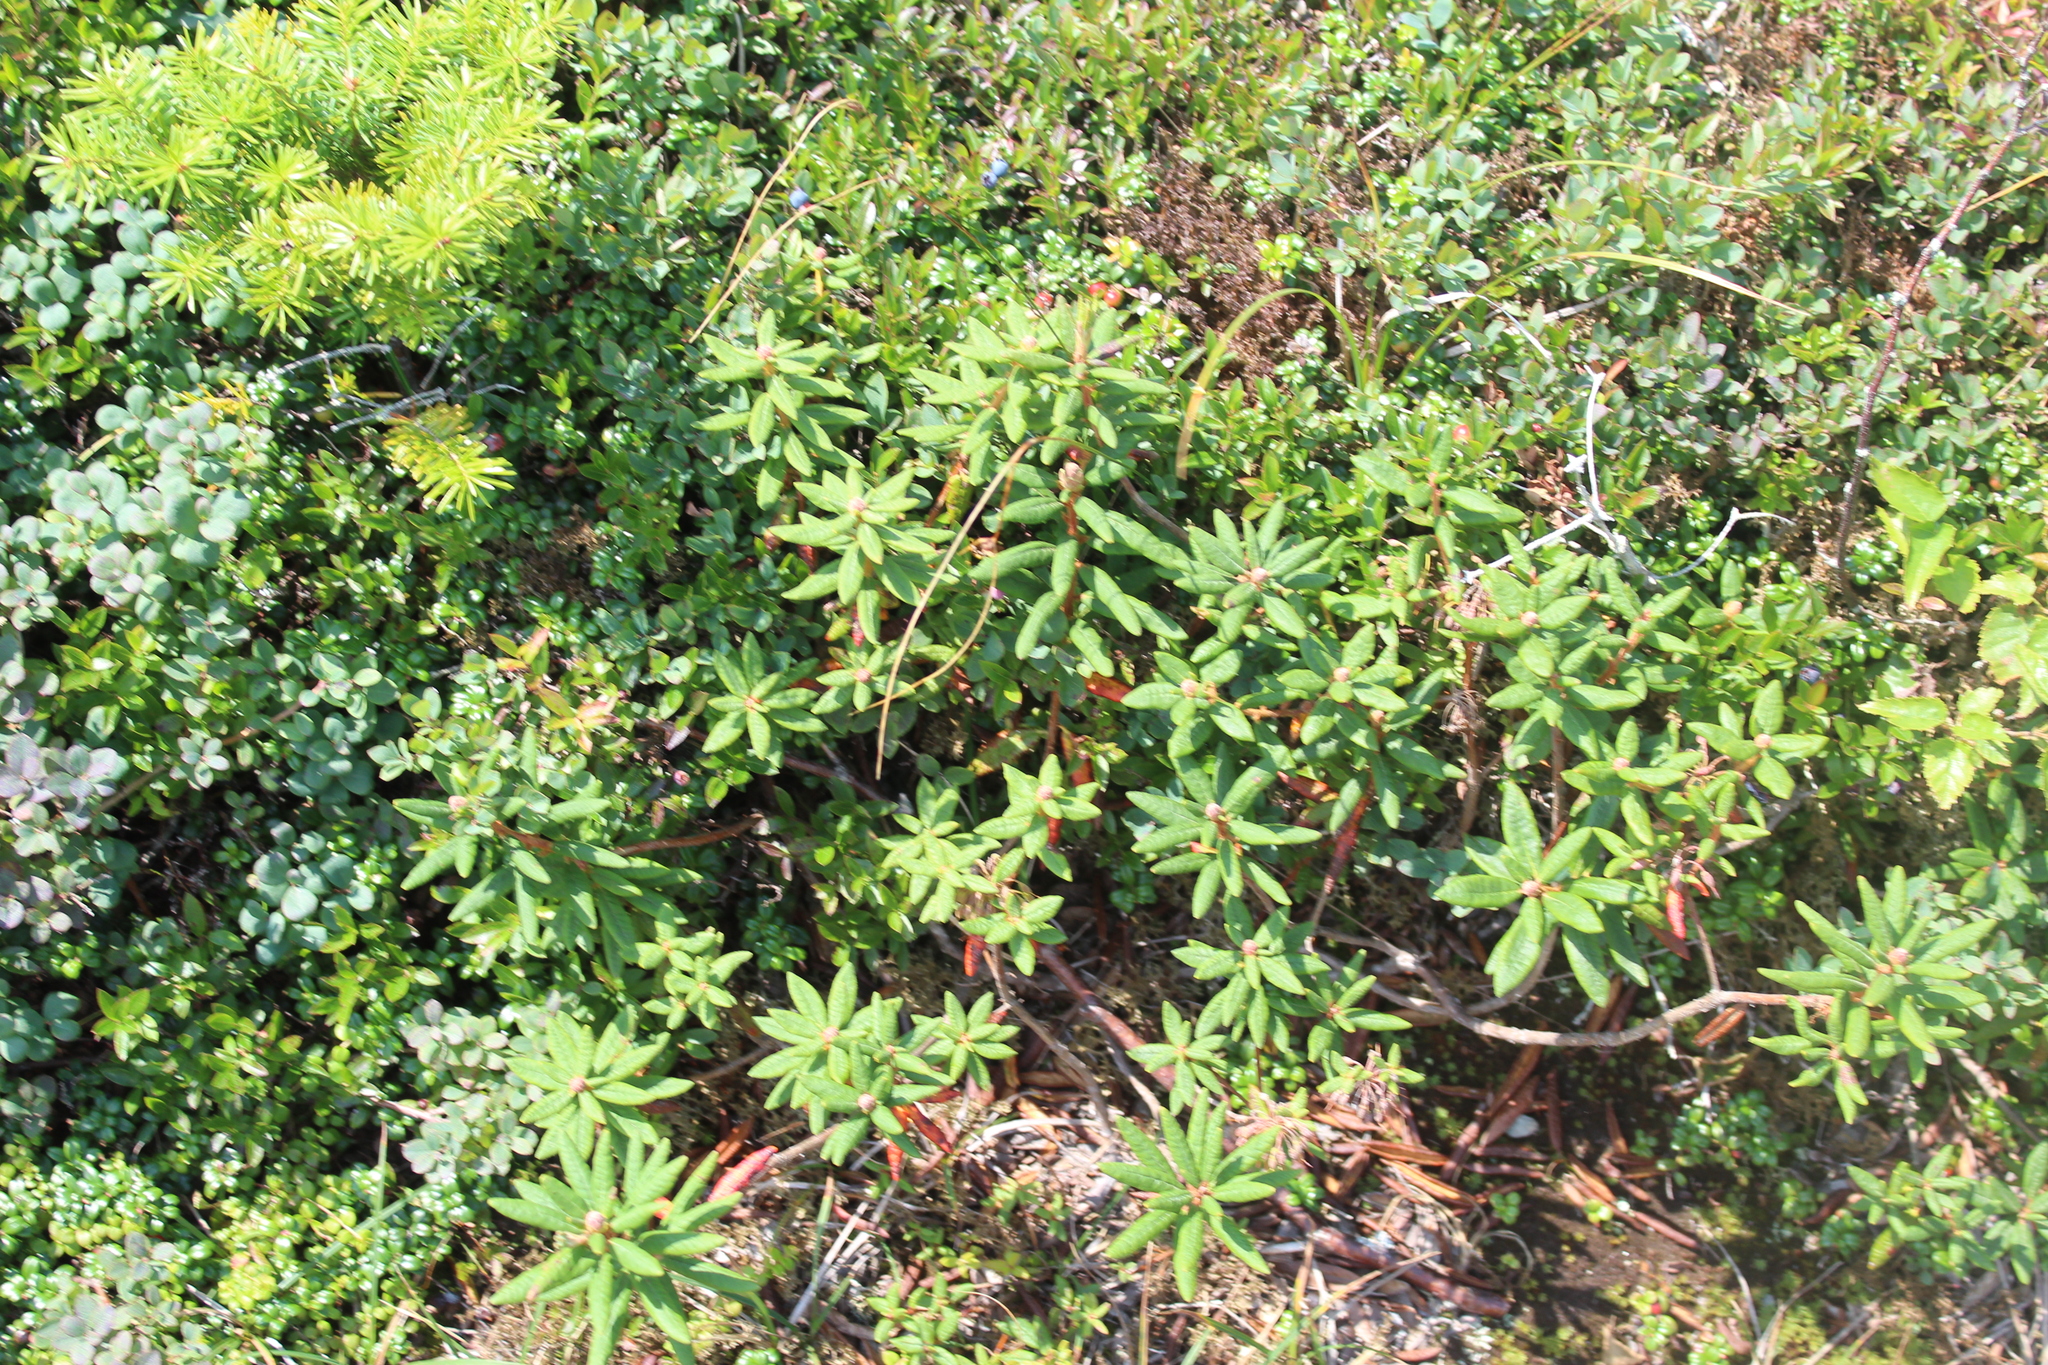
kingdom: Plantae
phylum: Tracheophyta
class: Magnoliopsida
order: Ericales
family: Ericaceae
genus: Rhododendron
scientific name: Rhododendron groenlandicum
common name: Bog labrador tea
